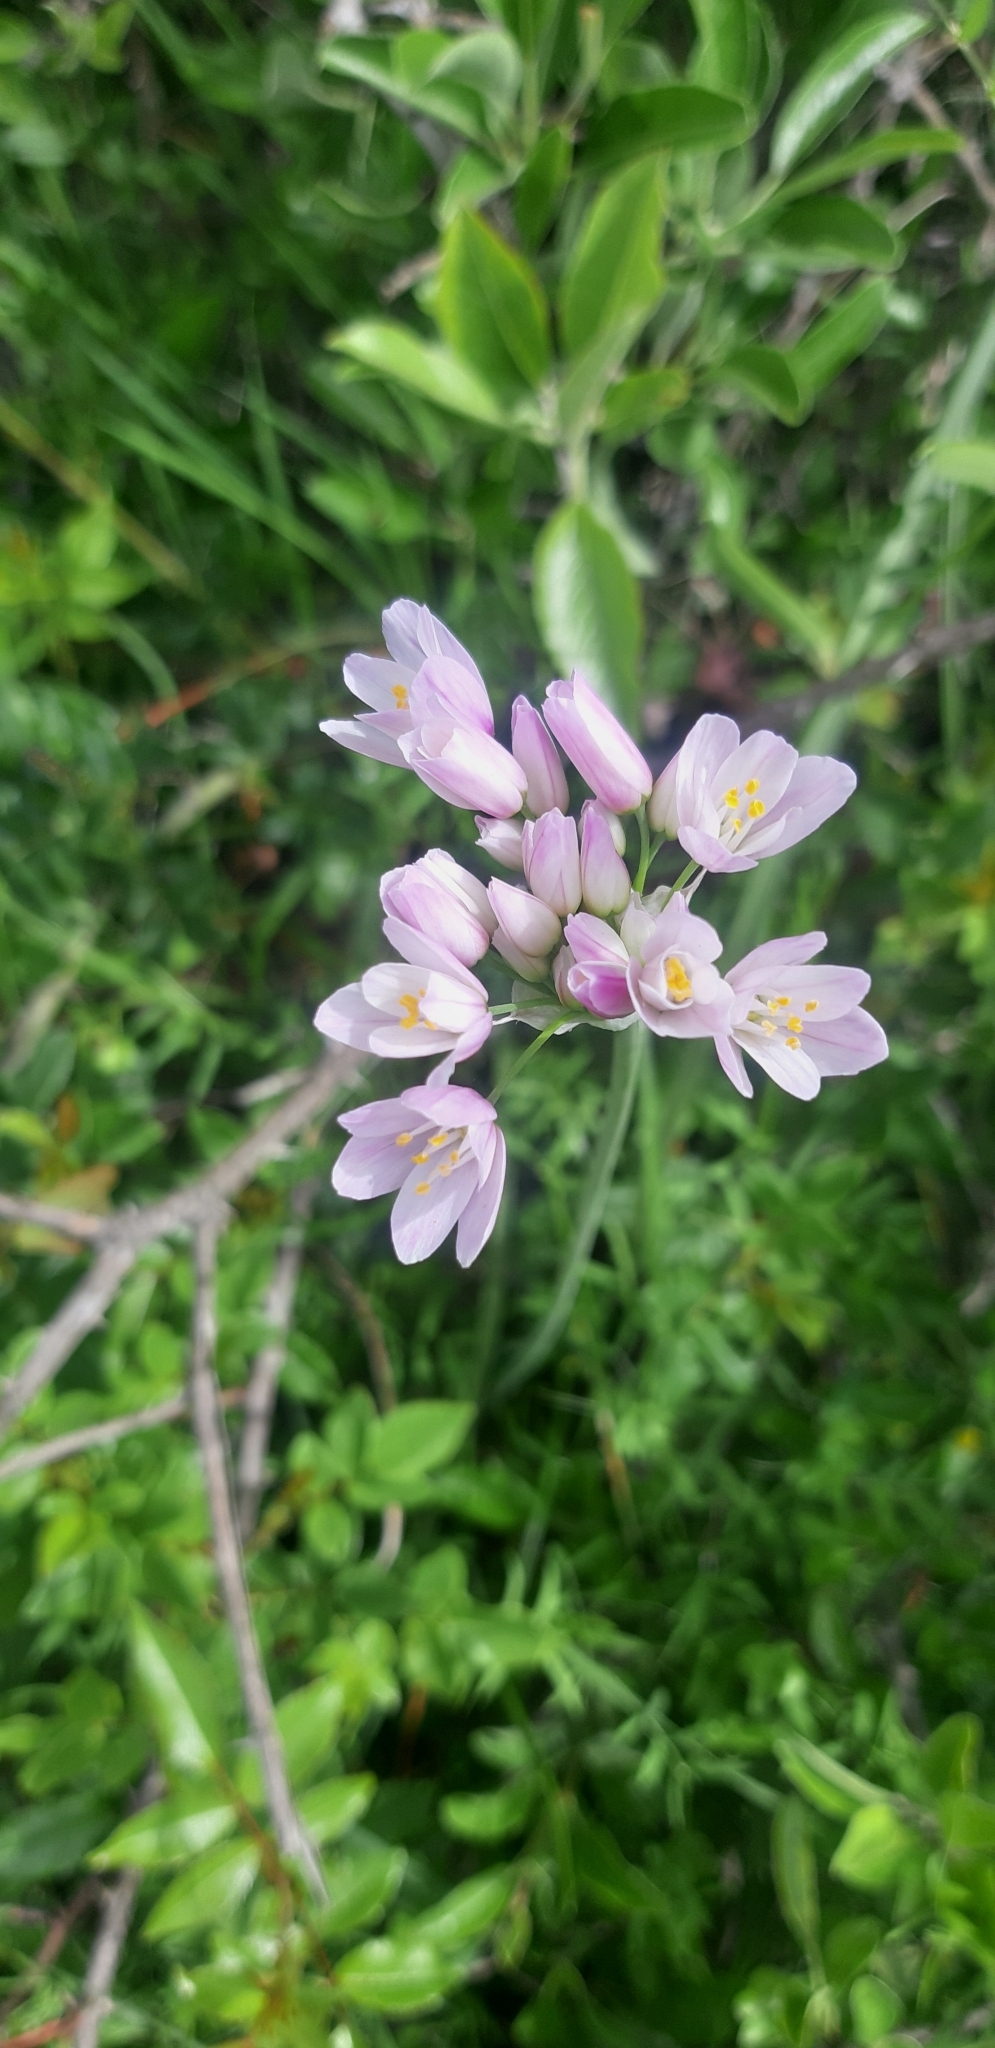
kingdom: Plantae
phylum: Tracheophyta
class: Liliopsida
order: Asparagales
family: Amaryllidaceae
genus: Allium
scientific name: Allium roseum
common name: Rosy garlic
